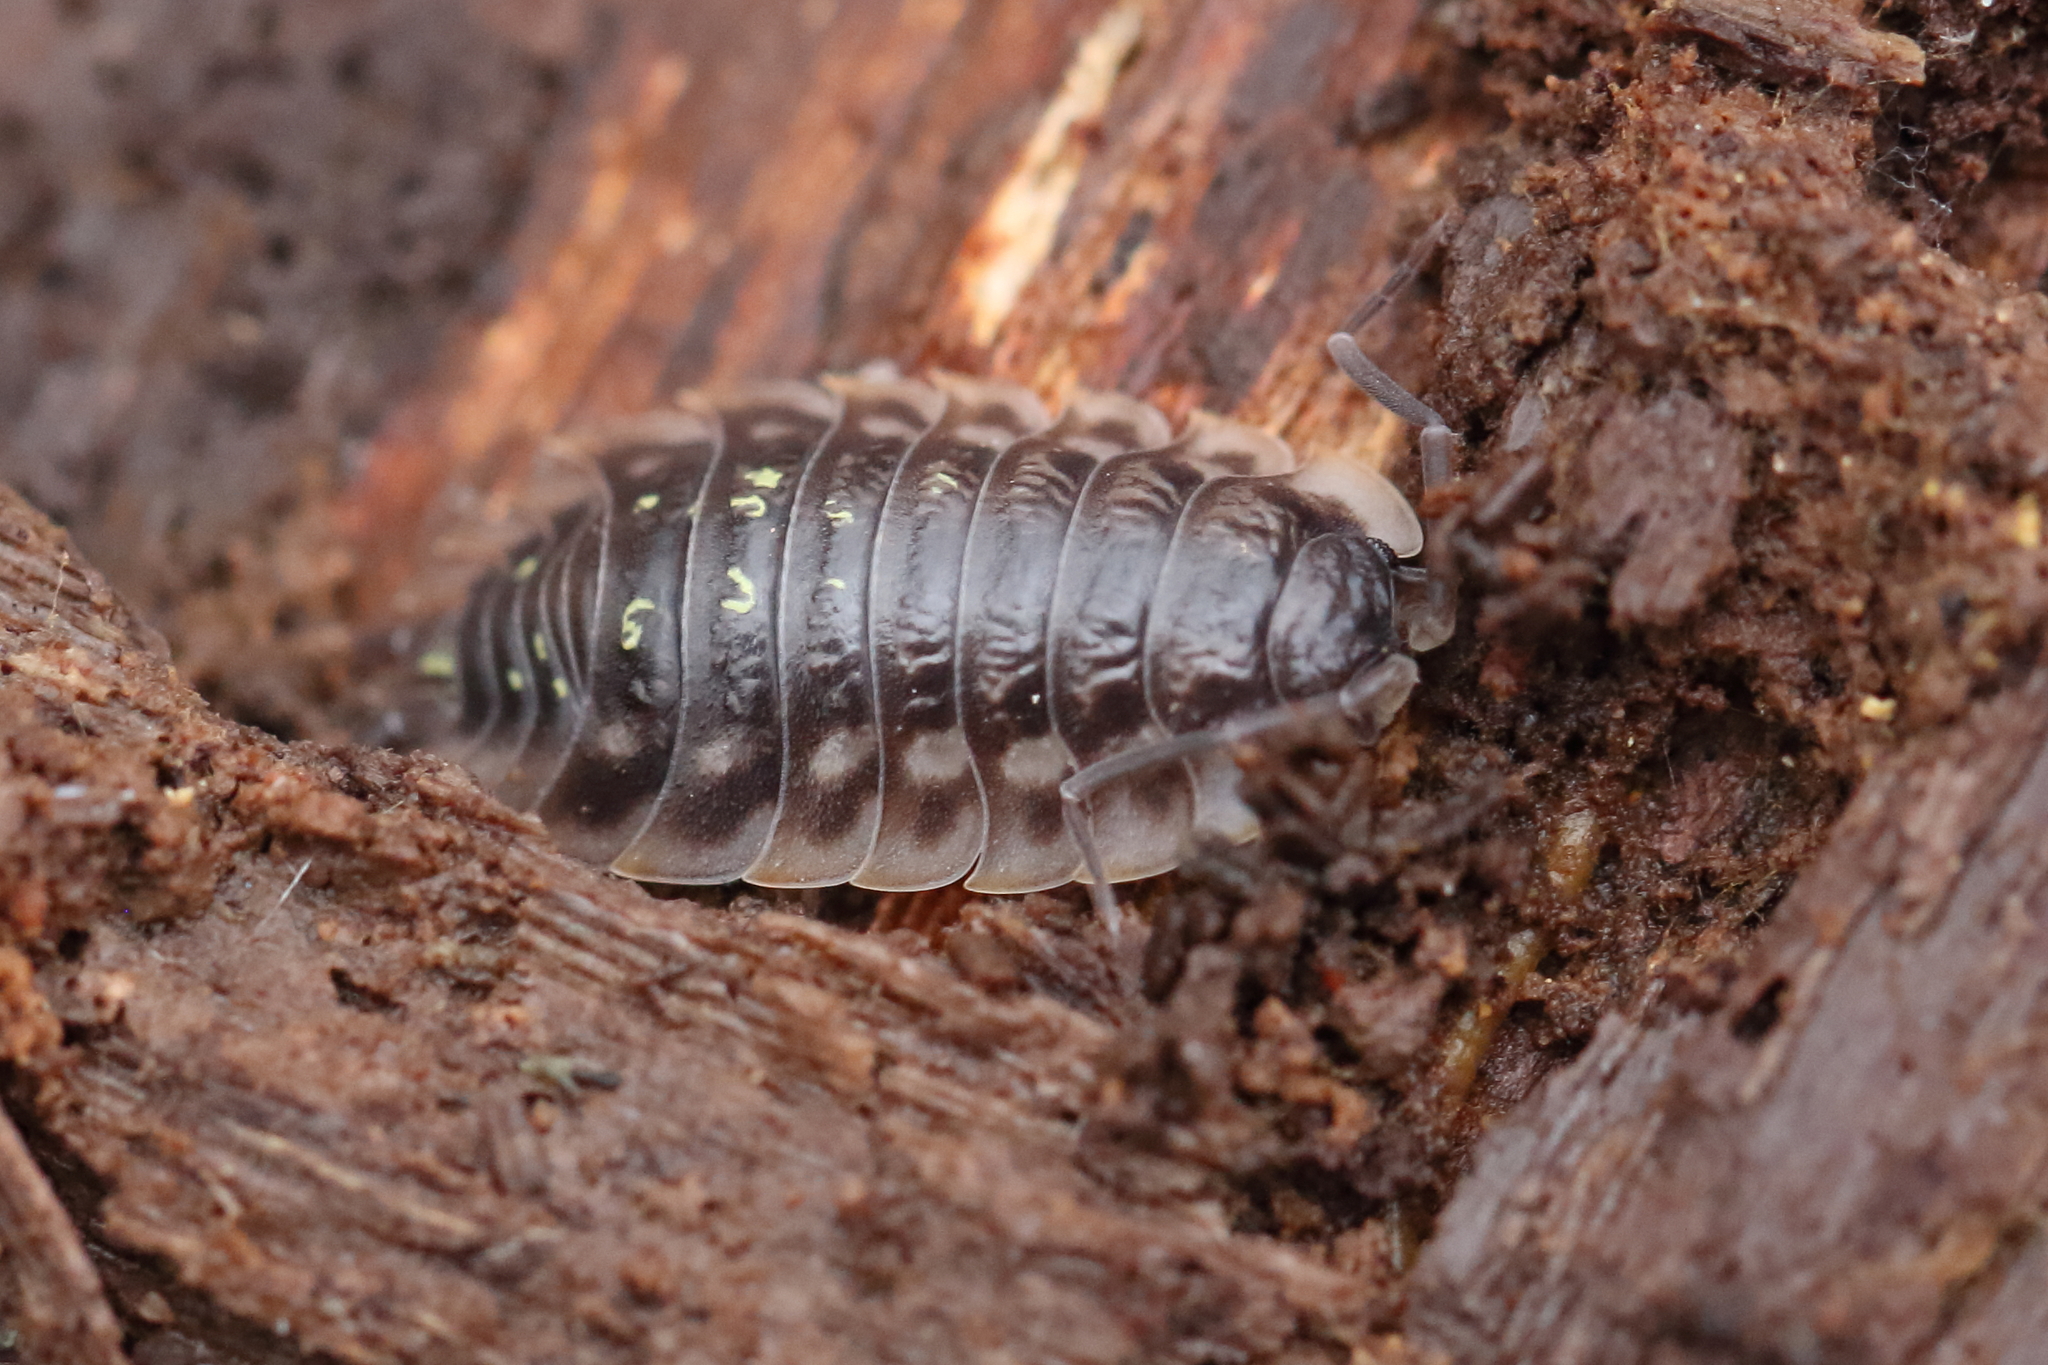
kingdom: Animalia
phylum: Arthropoda
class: Malacostraca
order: Isopoda
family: Oniscidae
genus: Oniscus
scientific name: Oniscus asellus
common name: Common shiny woodlouse
